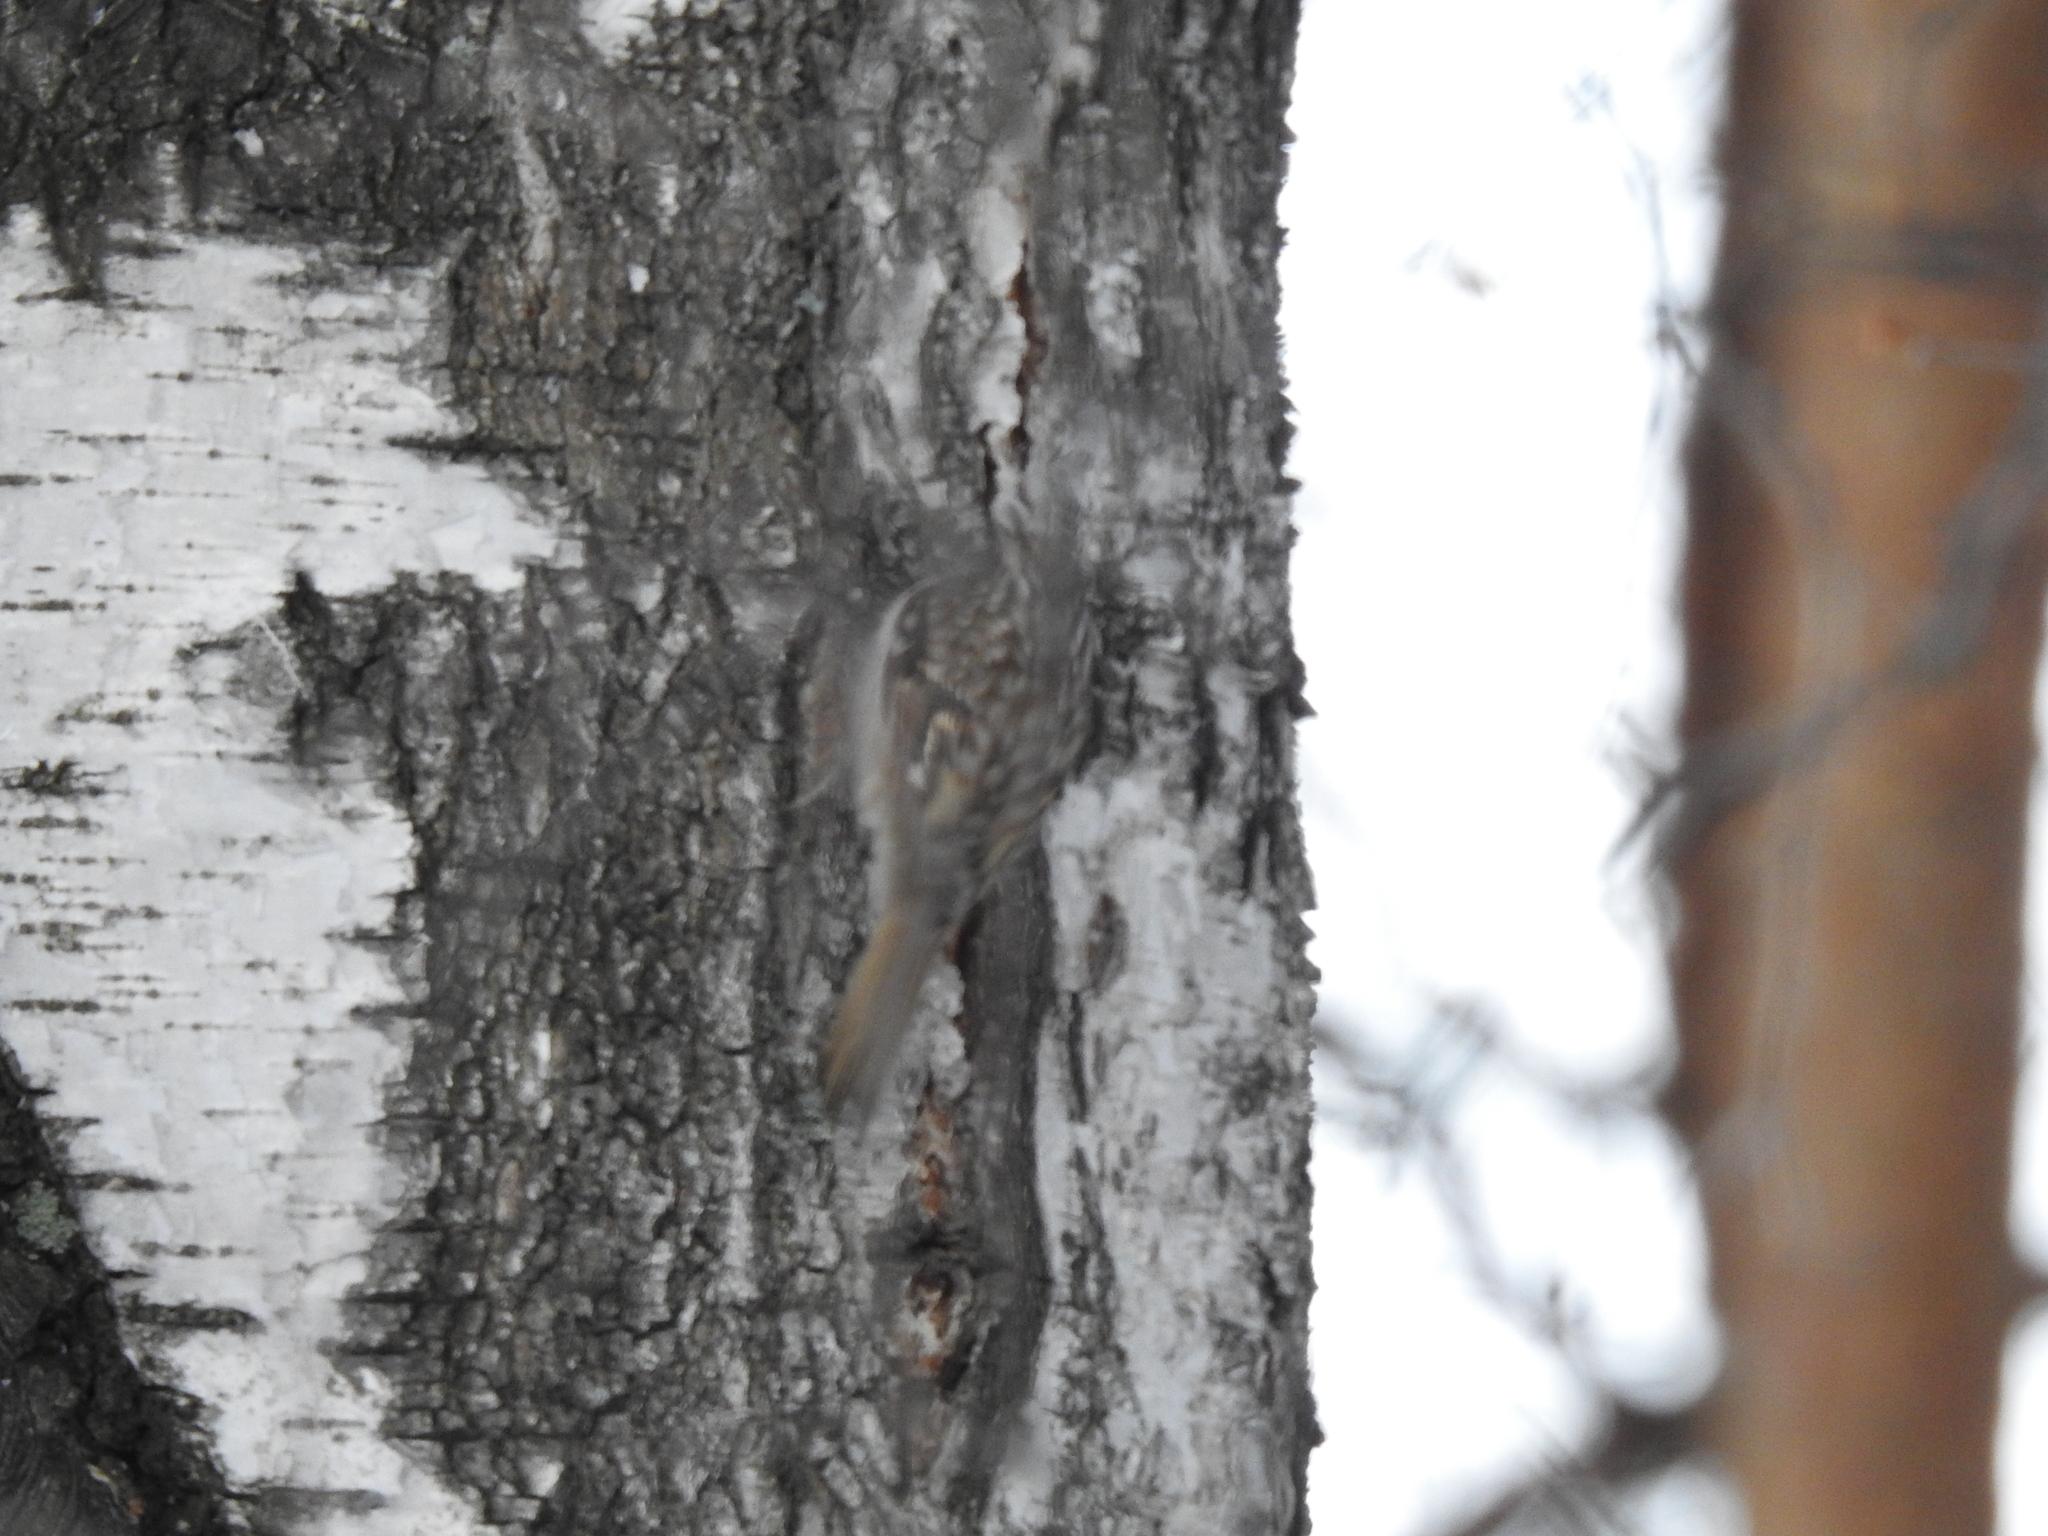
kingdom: Animalia
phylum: Chordata
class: Aves
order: Passeriformes
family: Certhiidae
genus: Certhia
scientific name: Certhia familiaris
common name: Eurasian treecreeper
